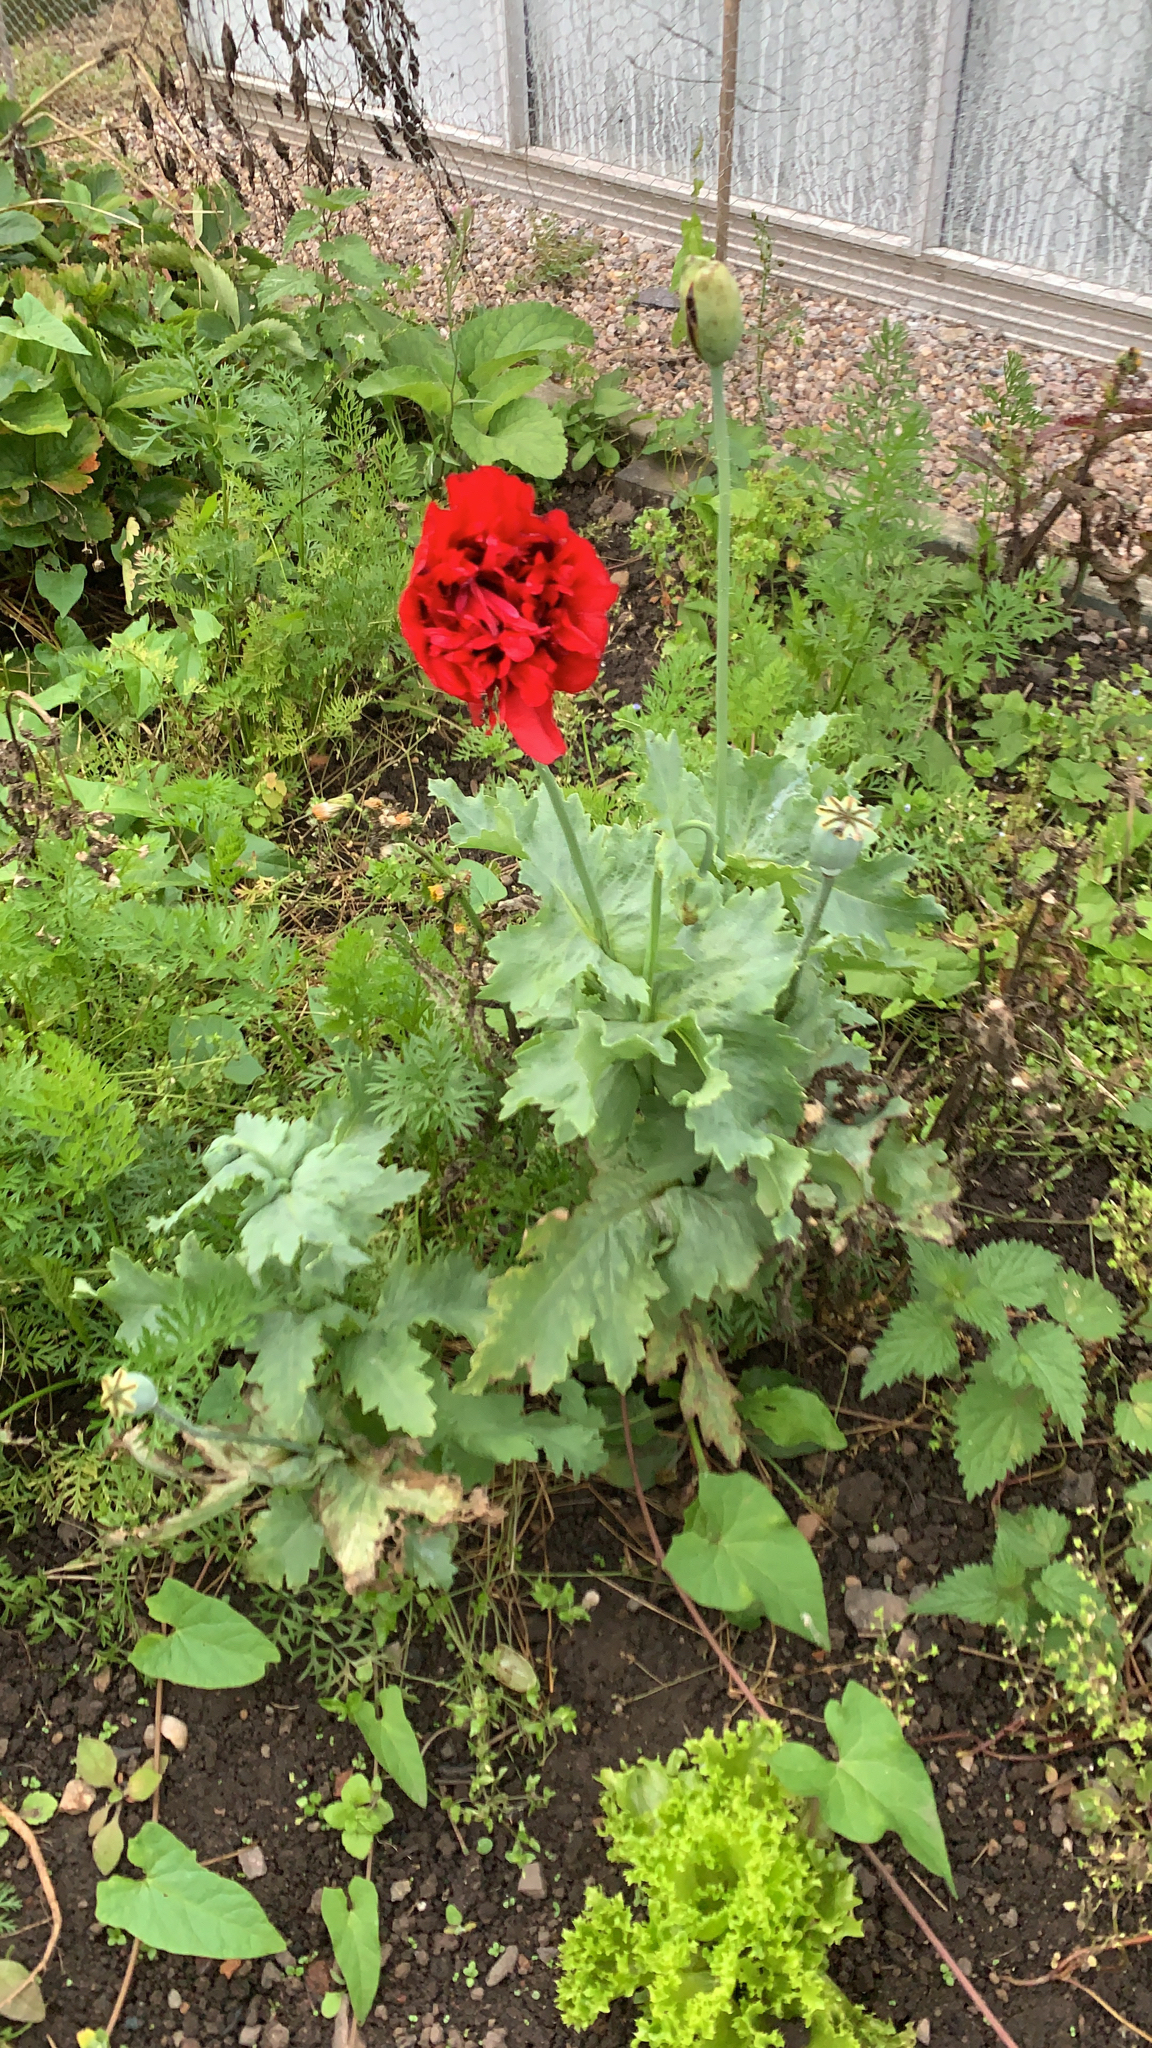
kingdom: Plantae
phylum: Tracheophyta
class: Magnoliopsida
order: Ranunculales
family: Papaveraceae
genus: Papaver
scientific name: Papaver somniferum
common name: Opium poppy
